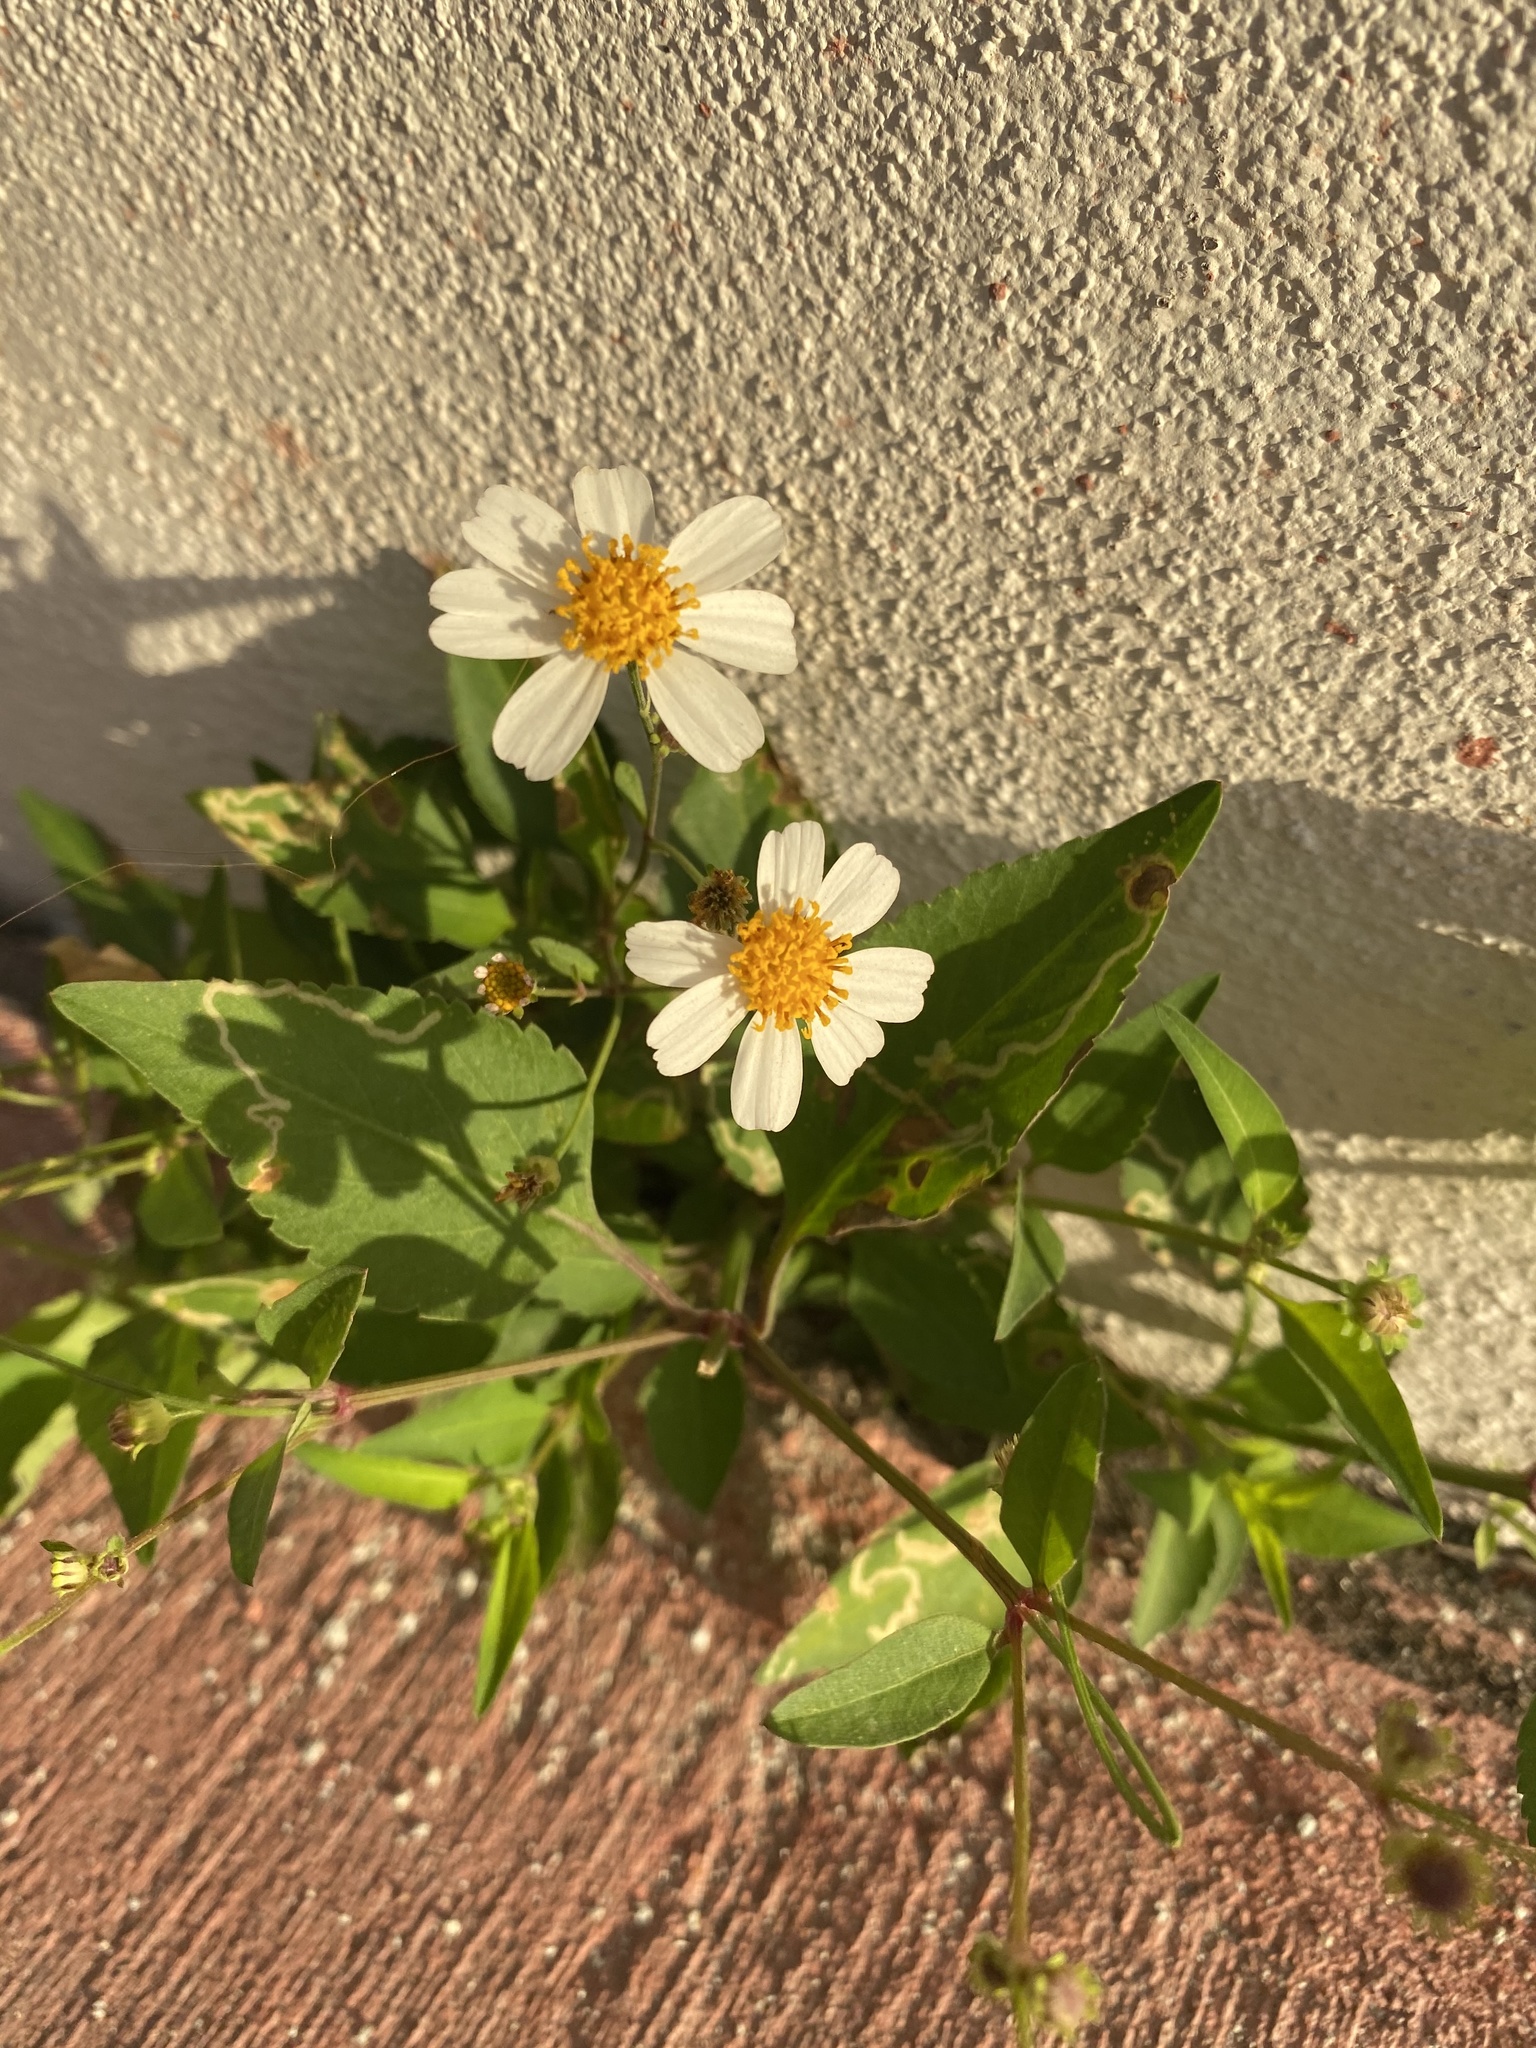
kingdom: Plantae
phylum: Tracheophyta
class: Magnoliopsida
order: Asterales
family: Asteraceae
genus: Bidens
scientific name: Bidens alba
